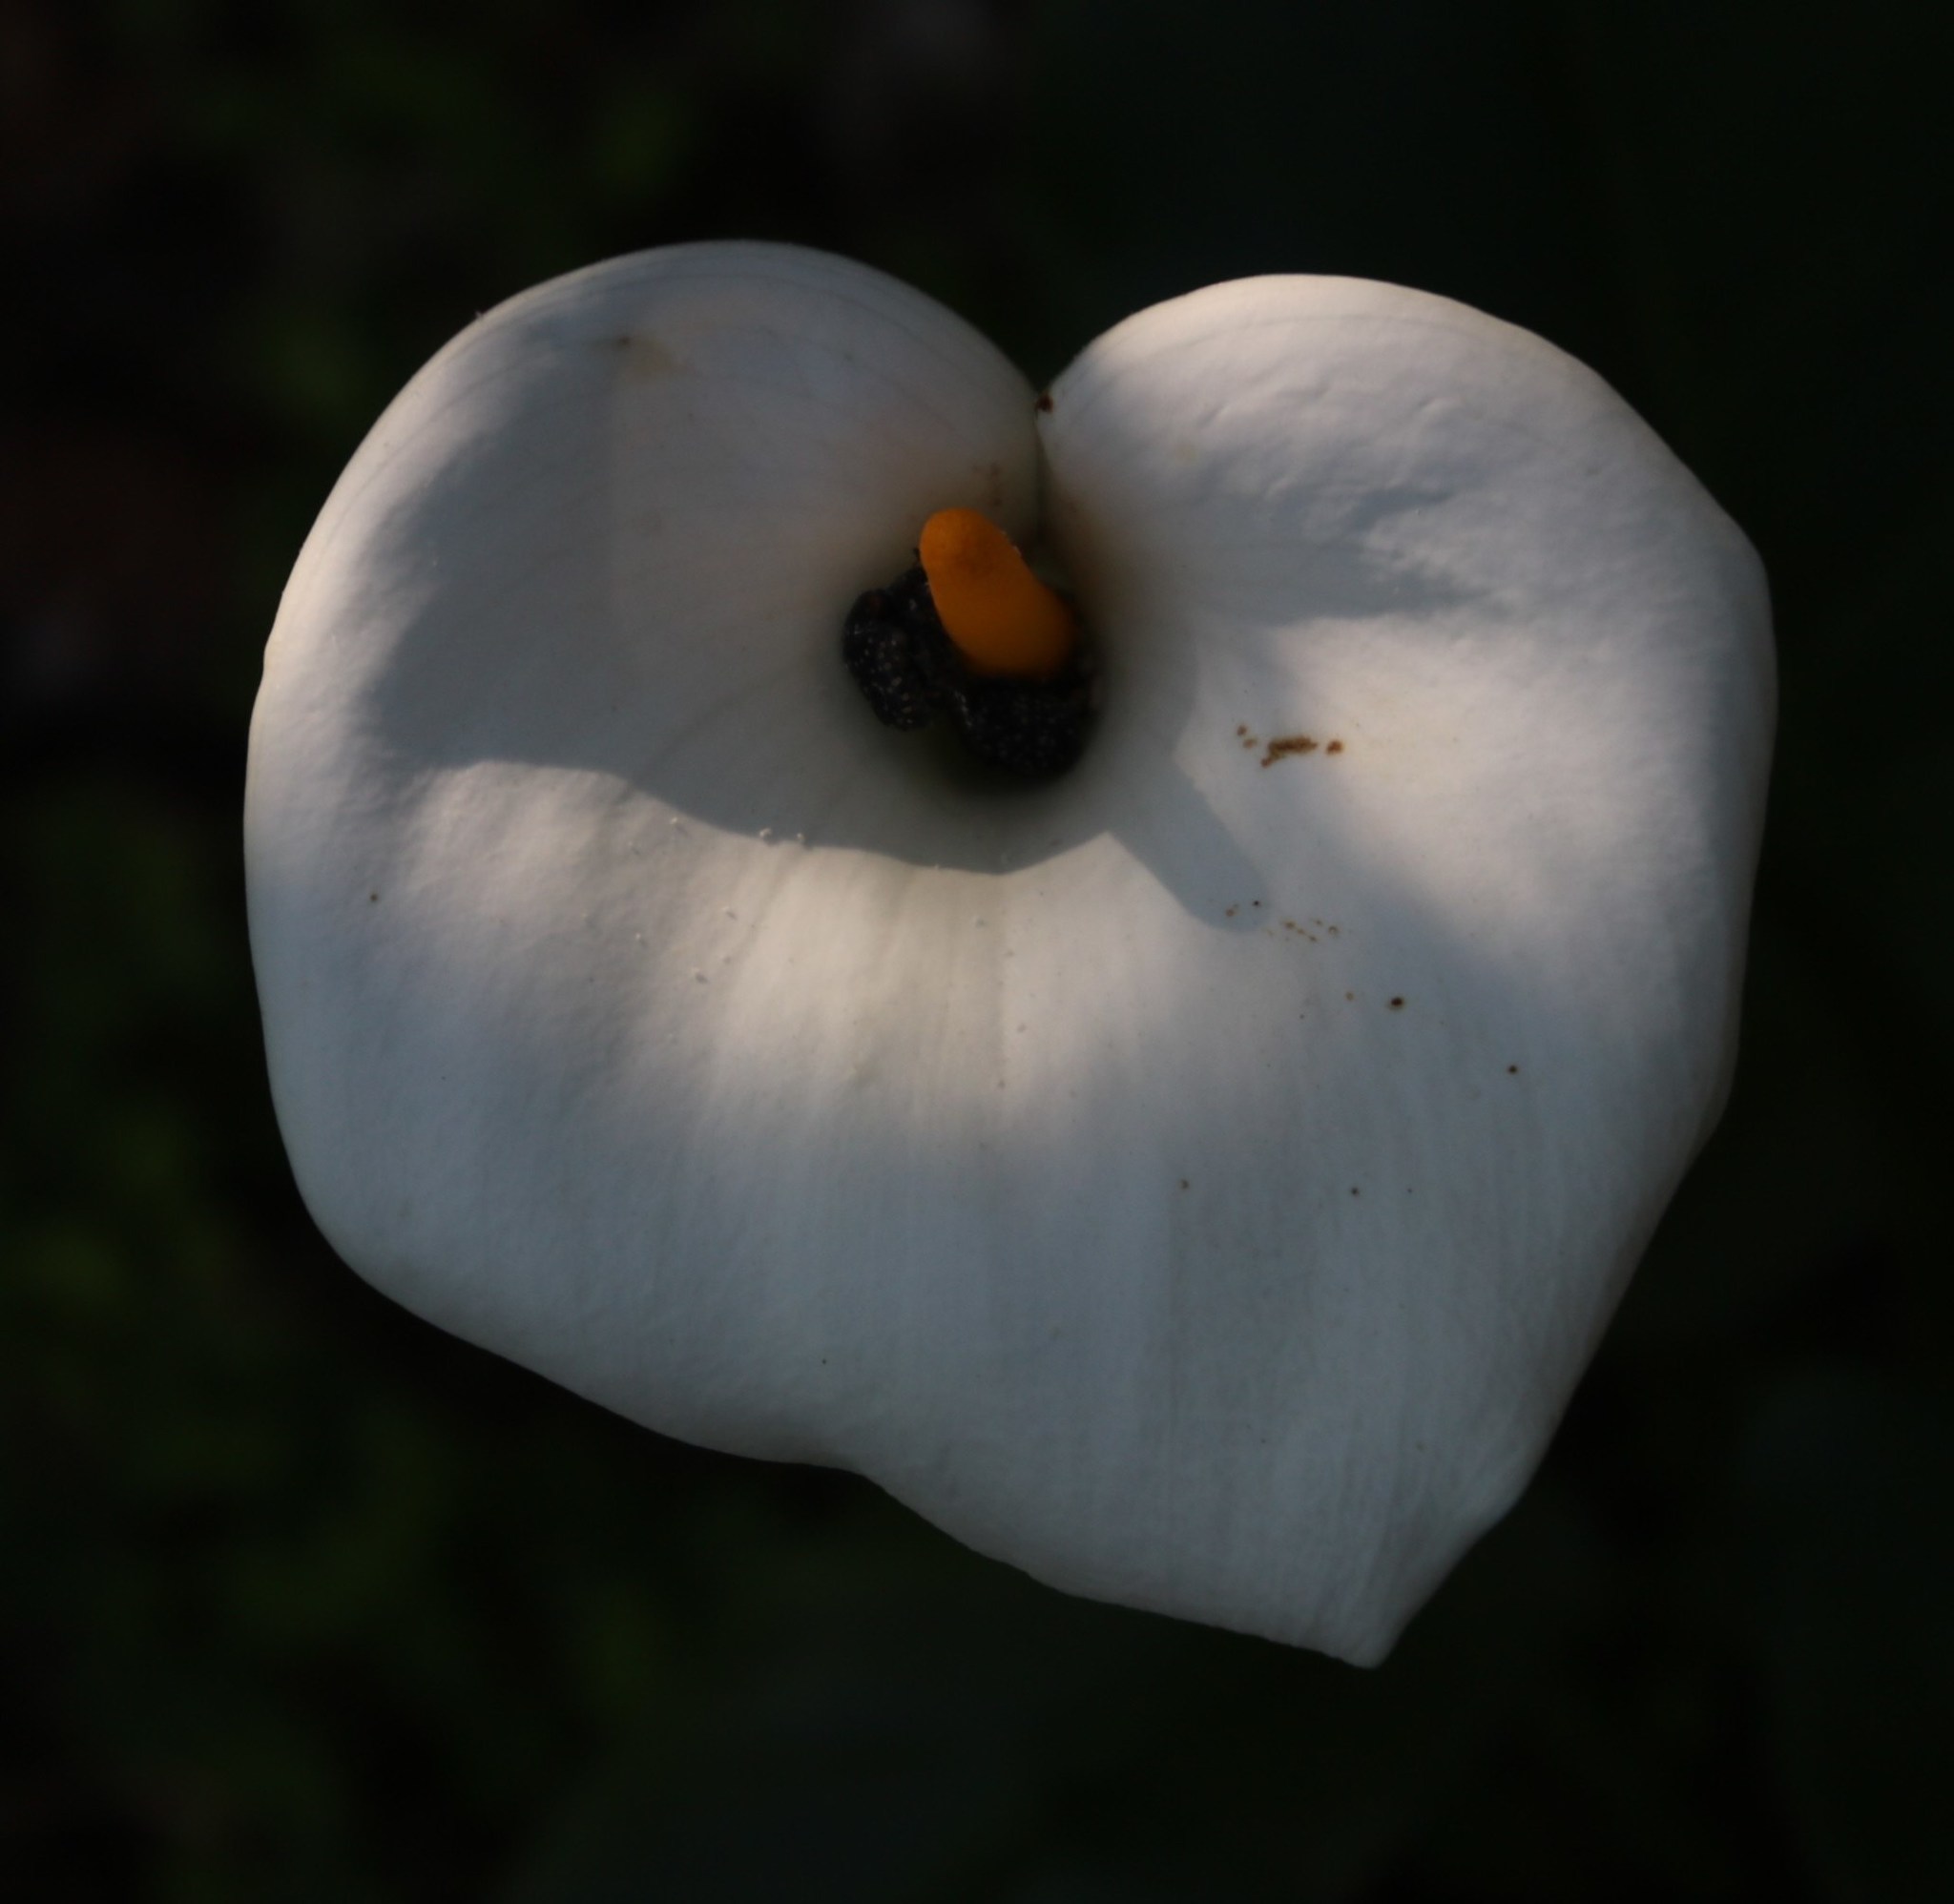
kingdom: Animalia
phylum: Arthropoda
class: Insecta
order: Coleoptera
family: Scarabaeidae
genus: Oxythyrea
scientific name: Oxythyrea
